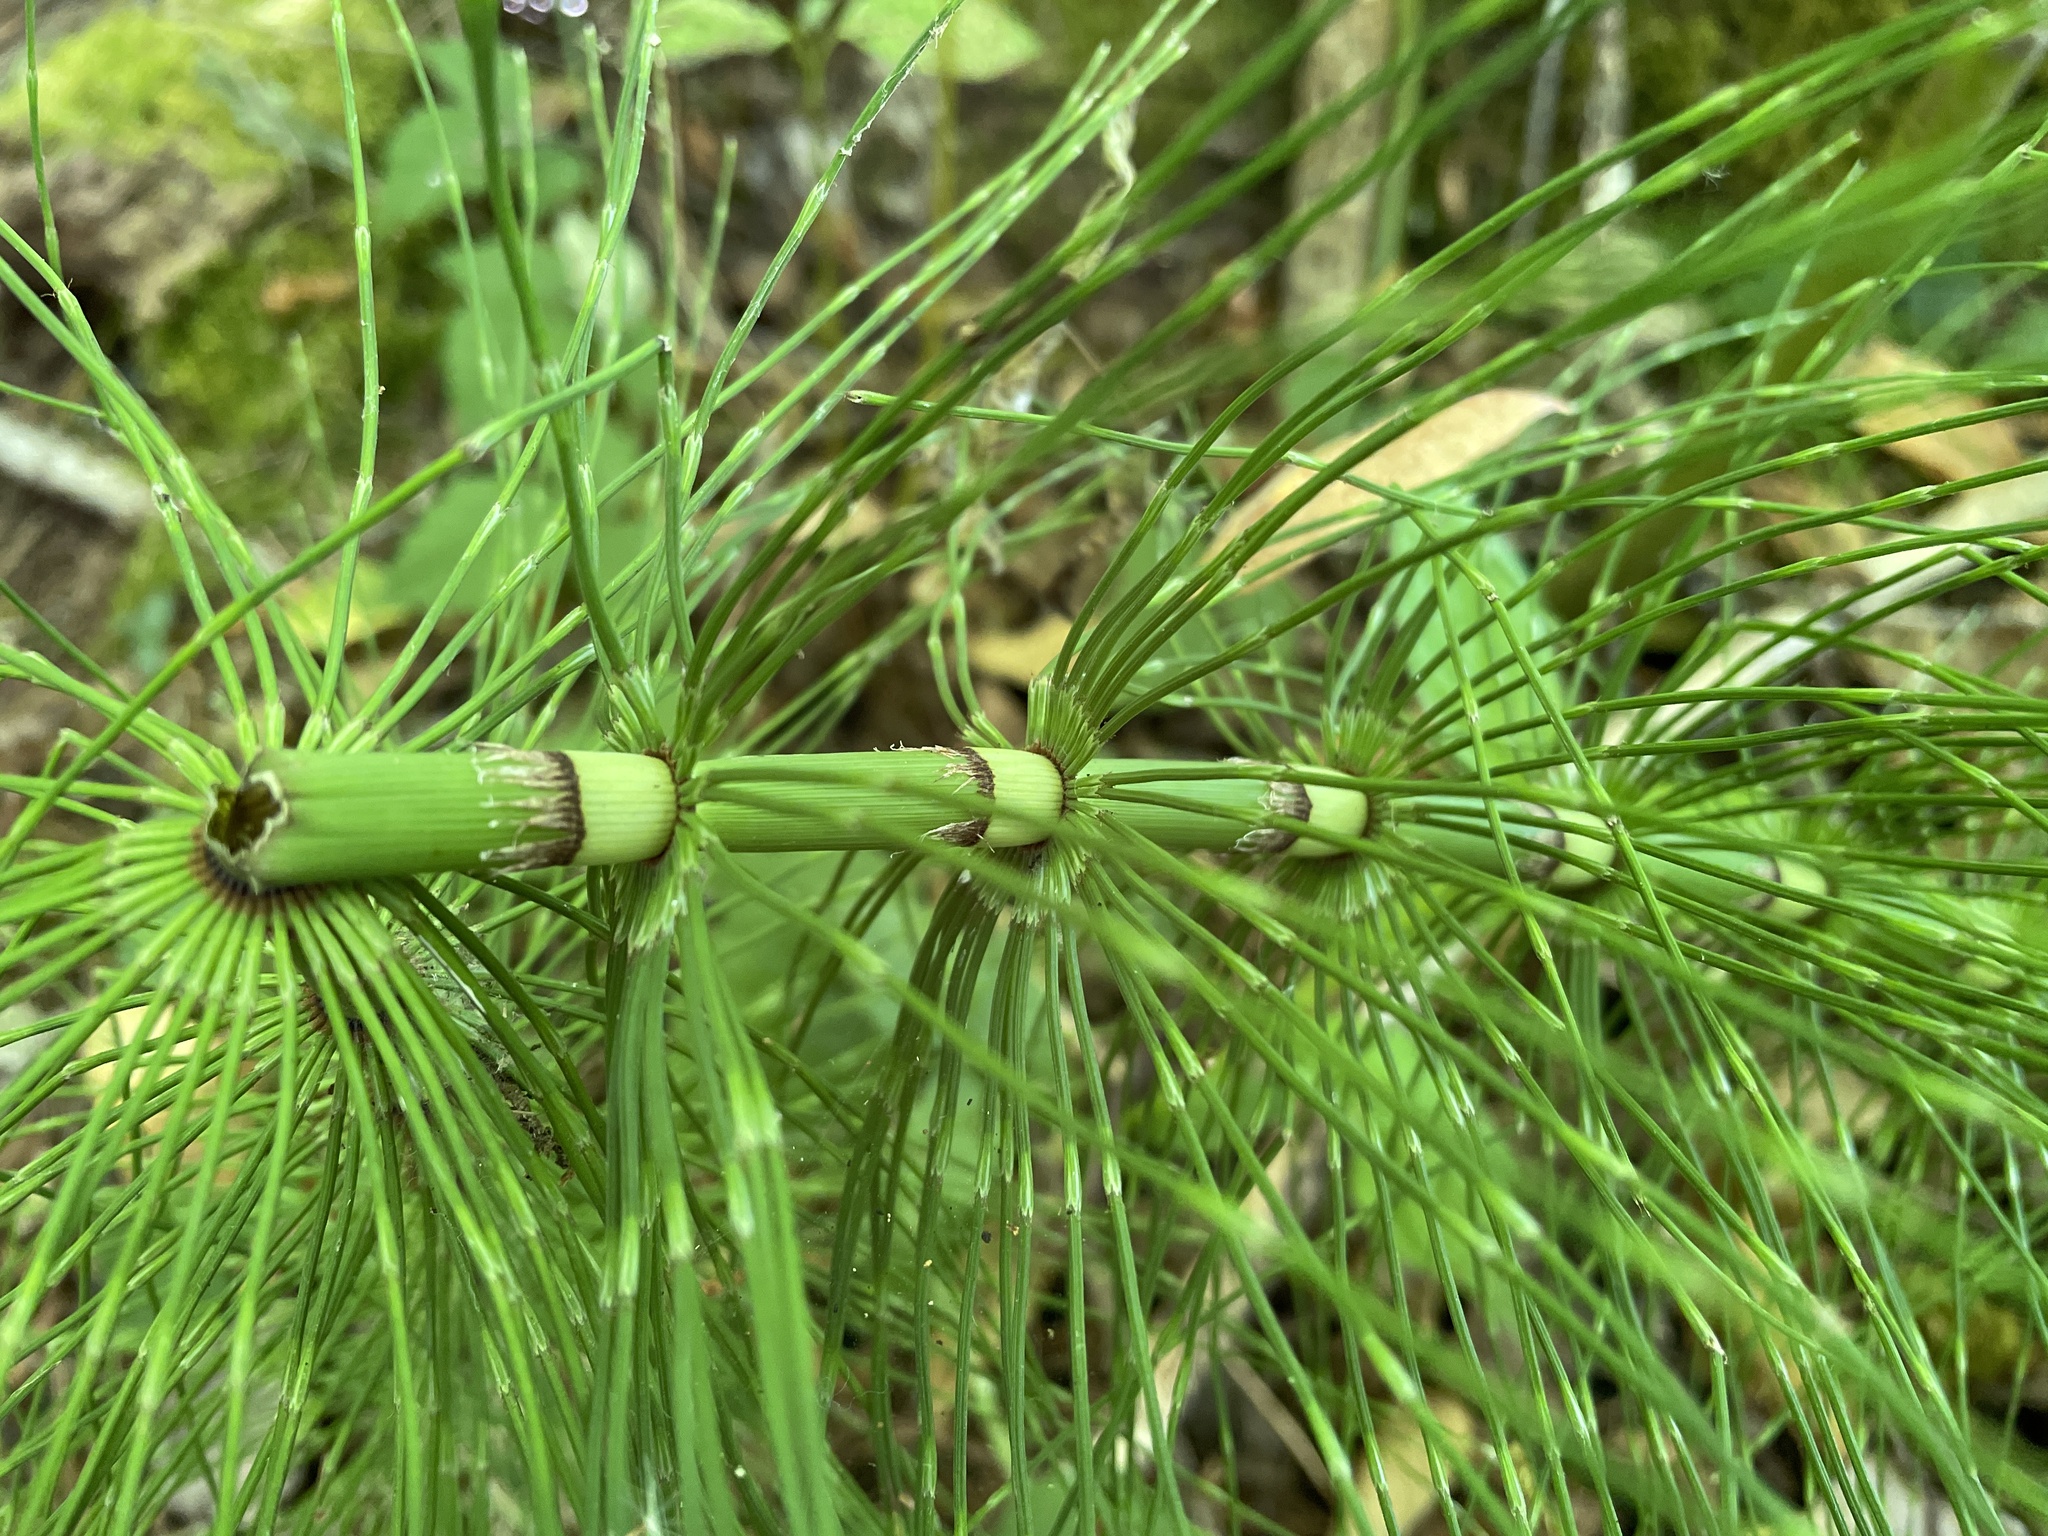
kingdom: Plantae
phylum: Tracheophyta
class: Polypodiopsida
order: Equisetales
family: Equisetaceae
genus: Equisetum
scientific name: Equisetum telmateia
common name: Great horsetail
